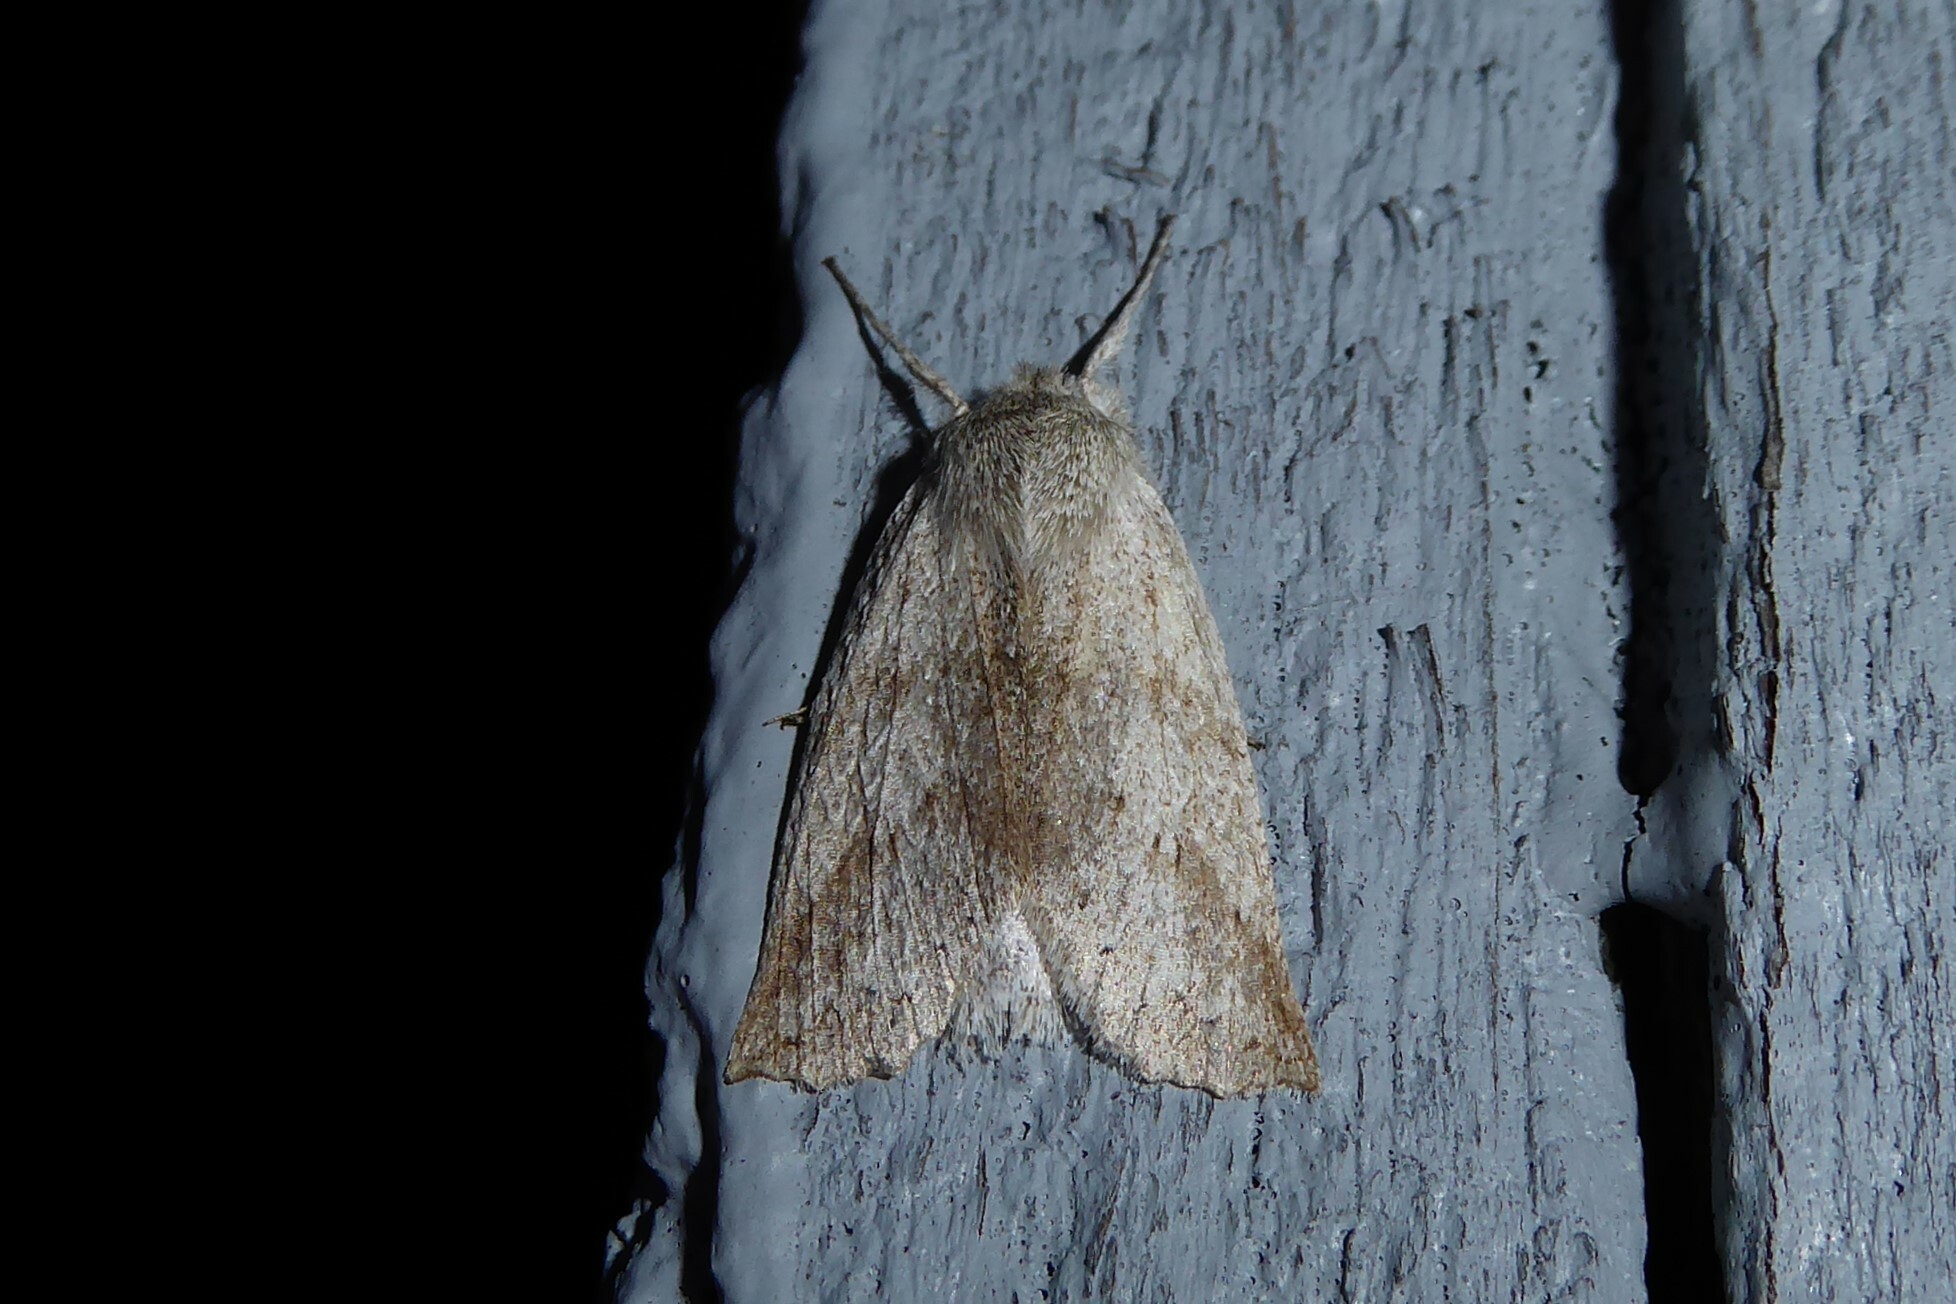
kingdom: Animalia
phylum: Arthropoda
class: Insecta
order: Lepidoptera
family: Geometridae
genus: Declana
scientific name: Declana leptomera
